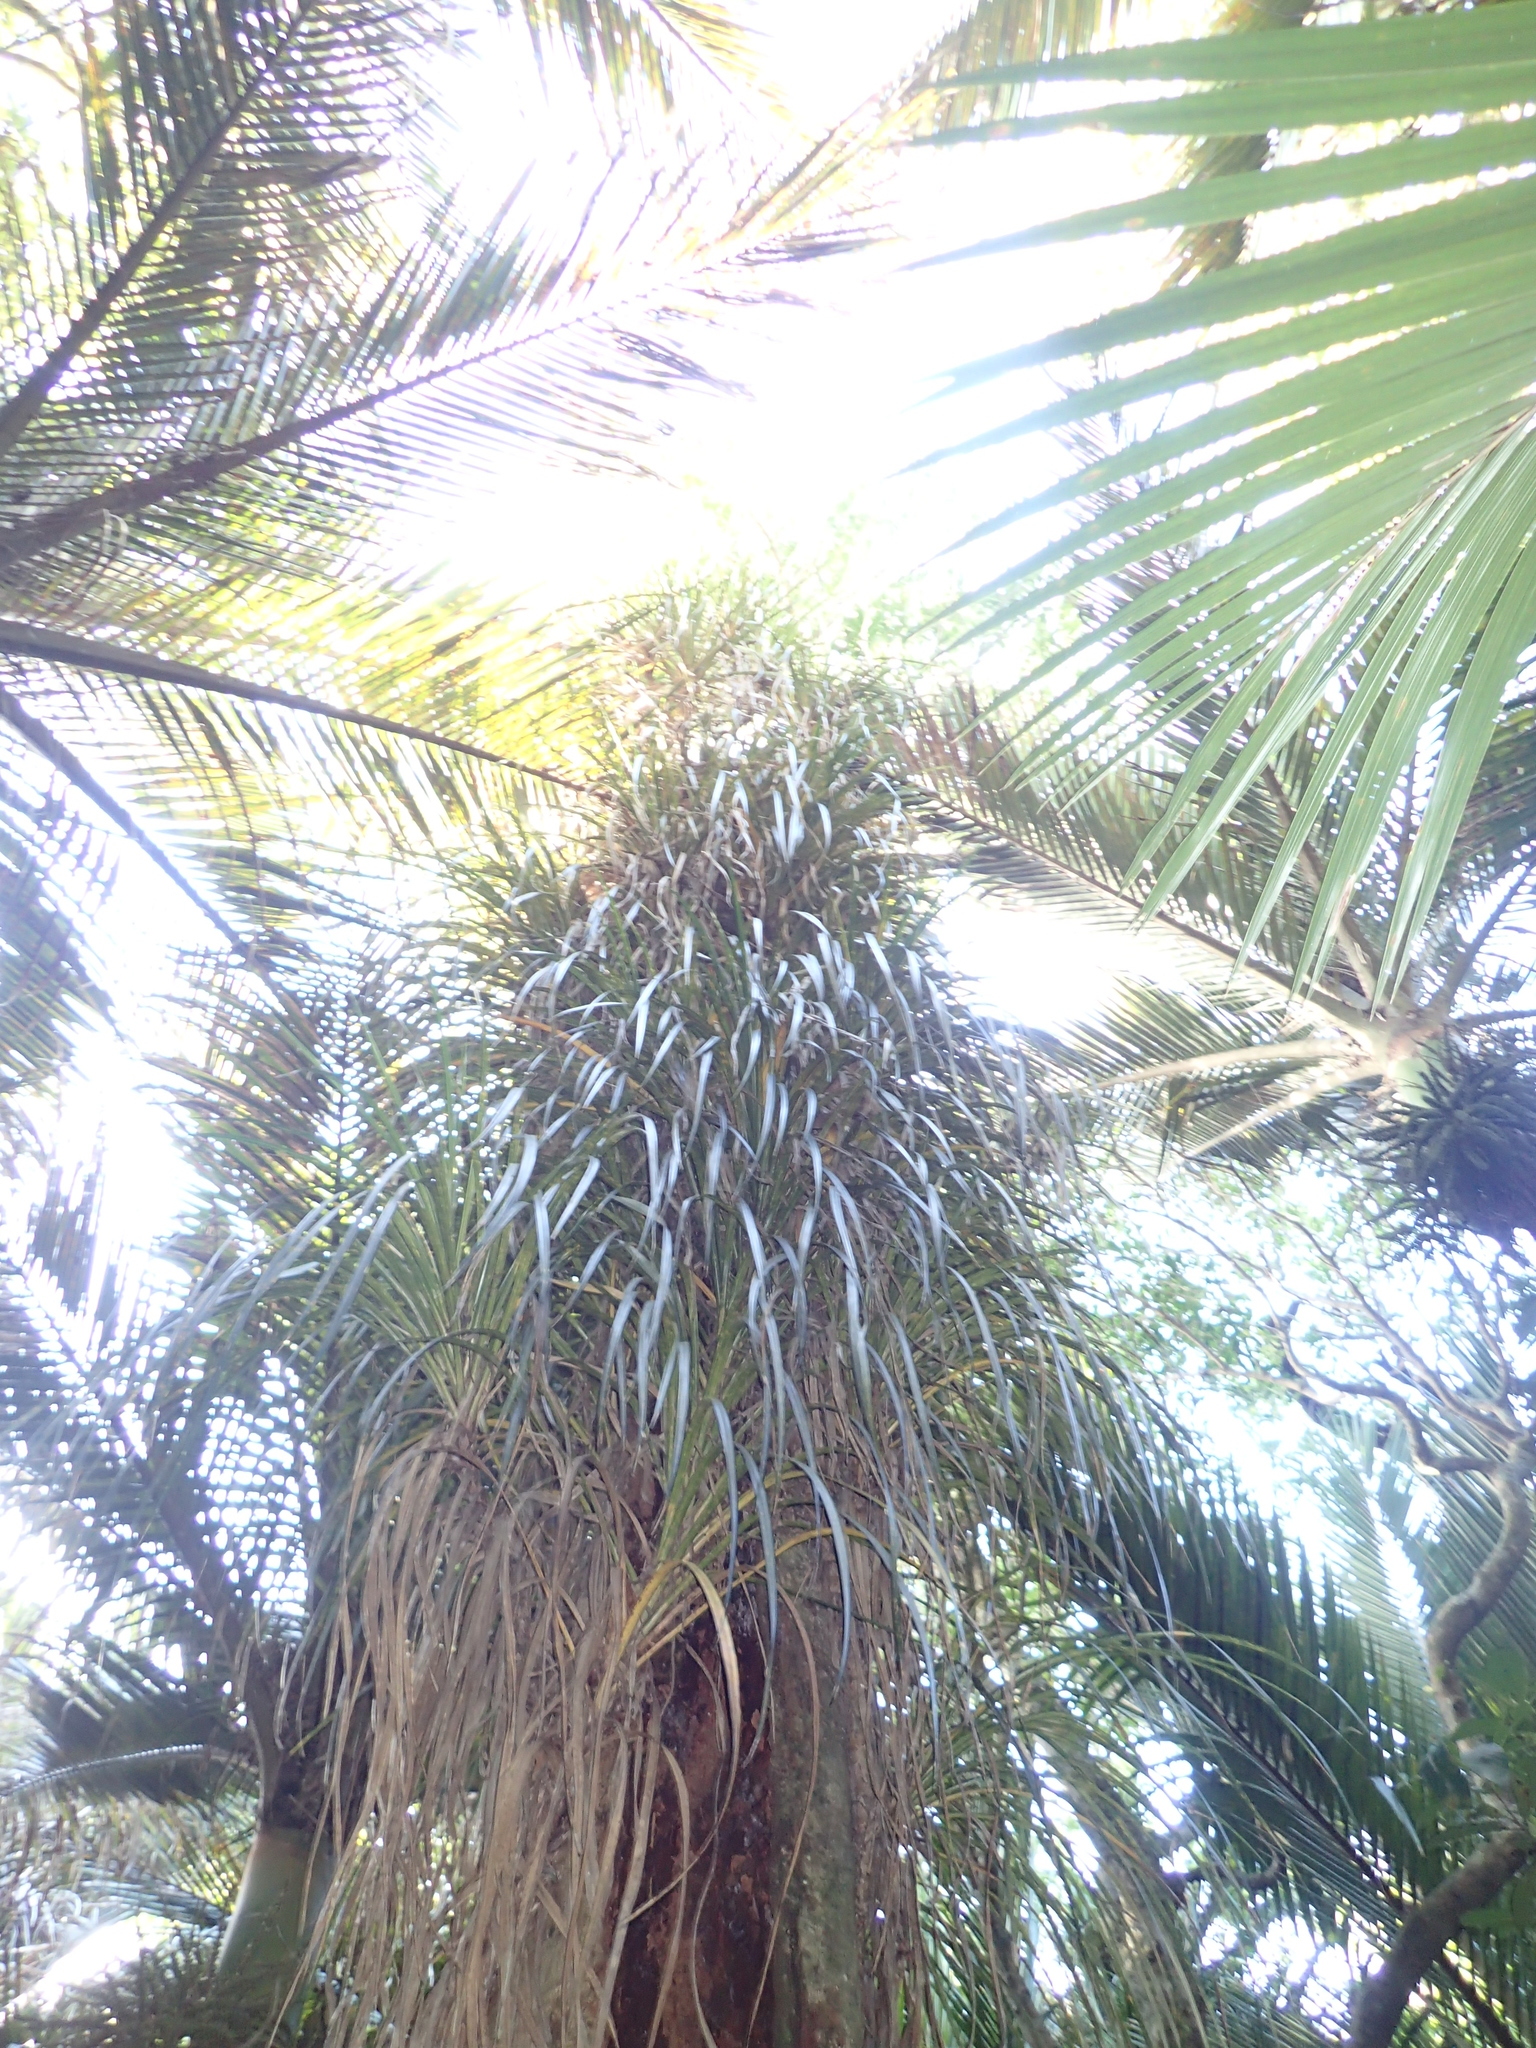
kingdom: Plantae
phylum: Tracheophyta
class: Liliopsida
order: Pandanales
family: Pandanaceae
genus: Freycinetia
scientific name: Freycinetia banksii
